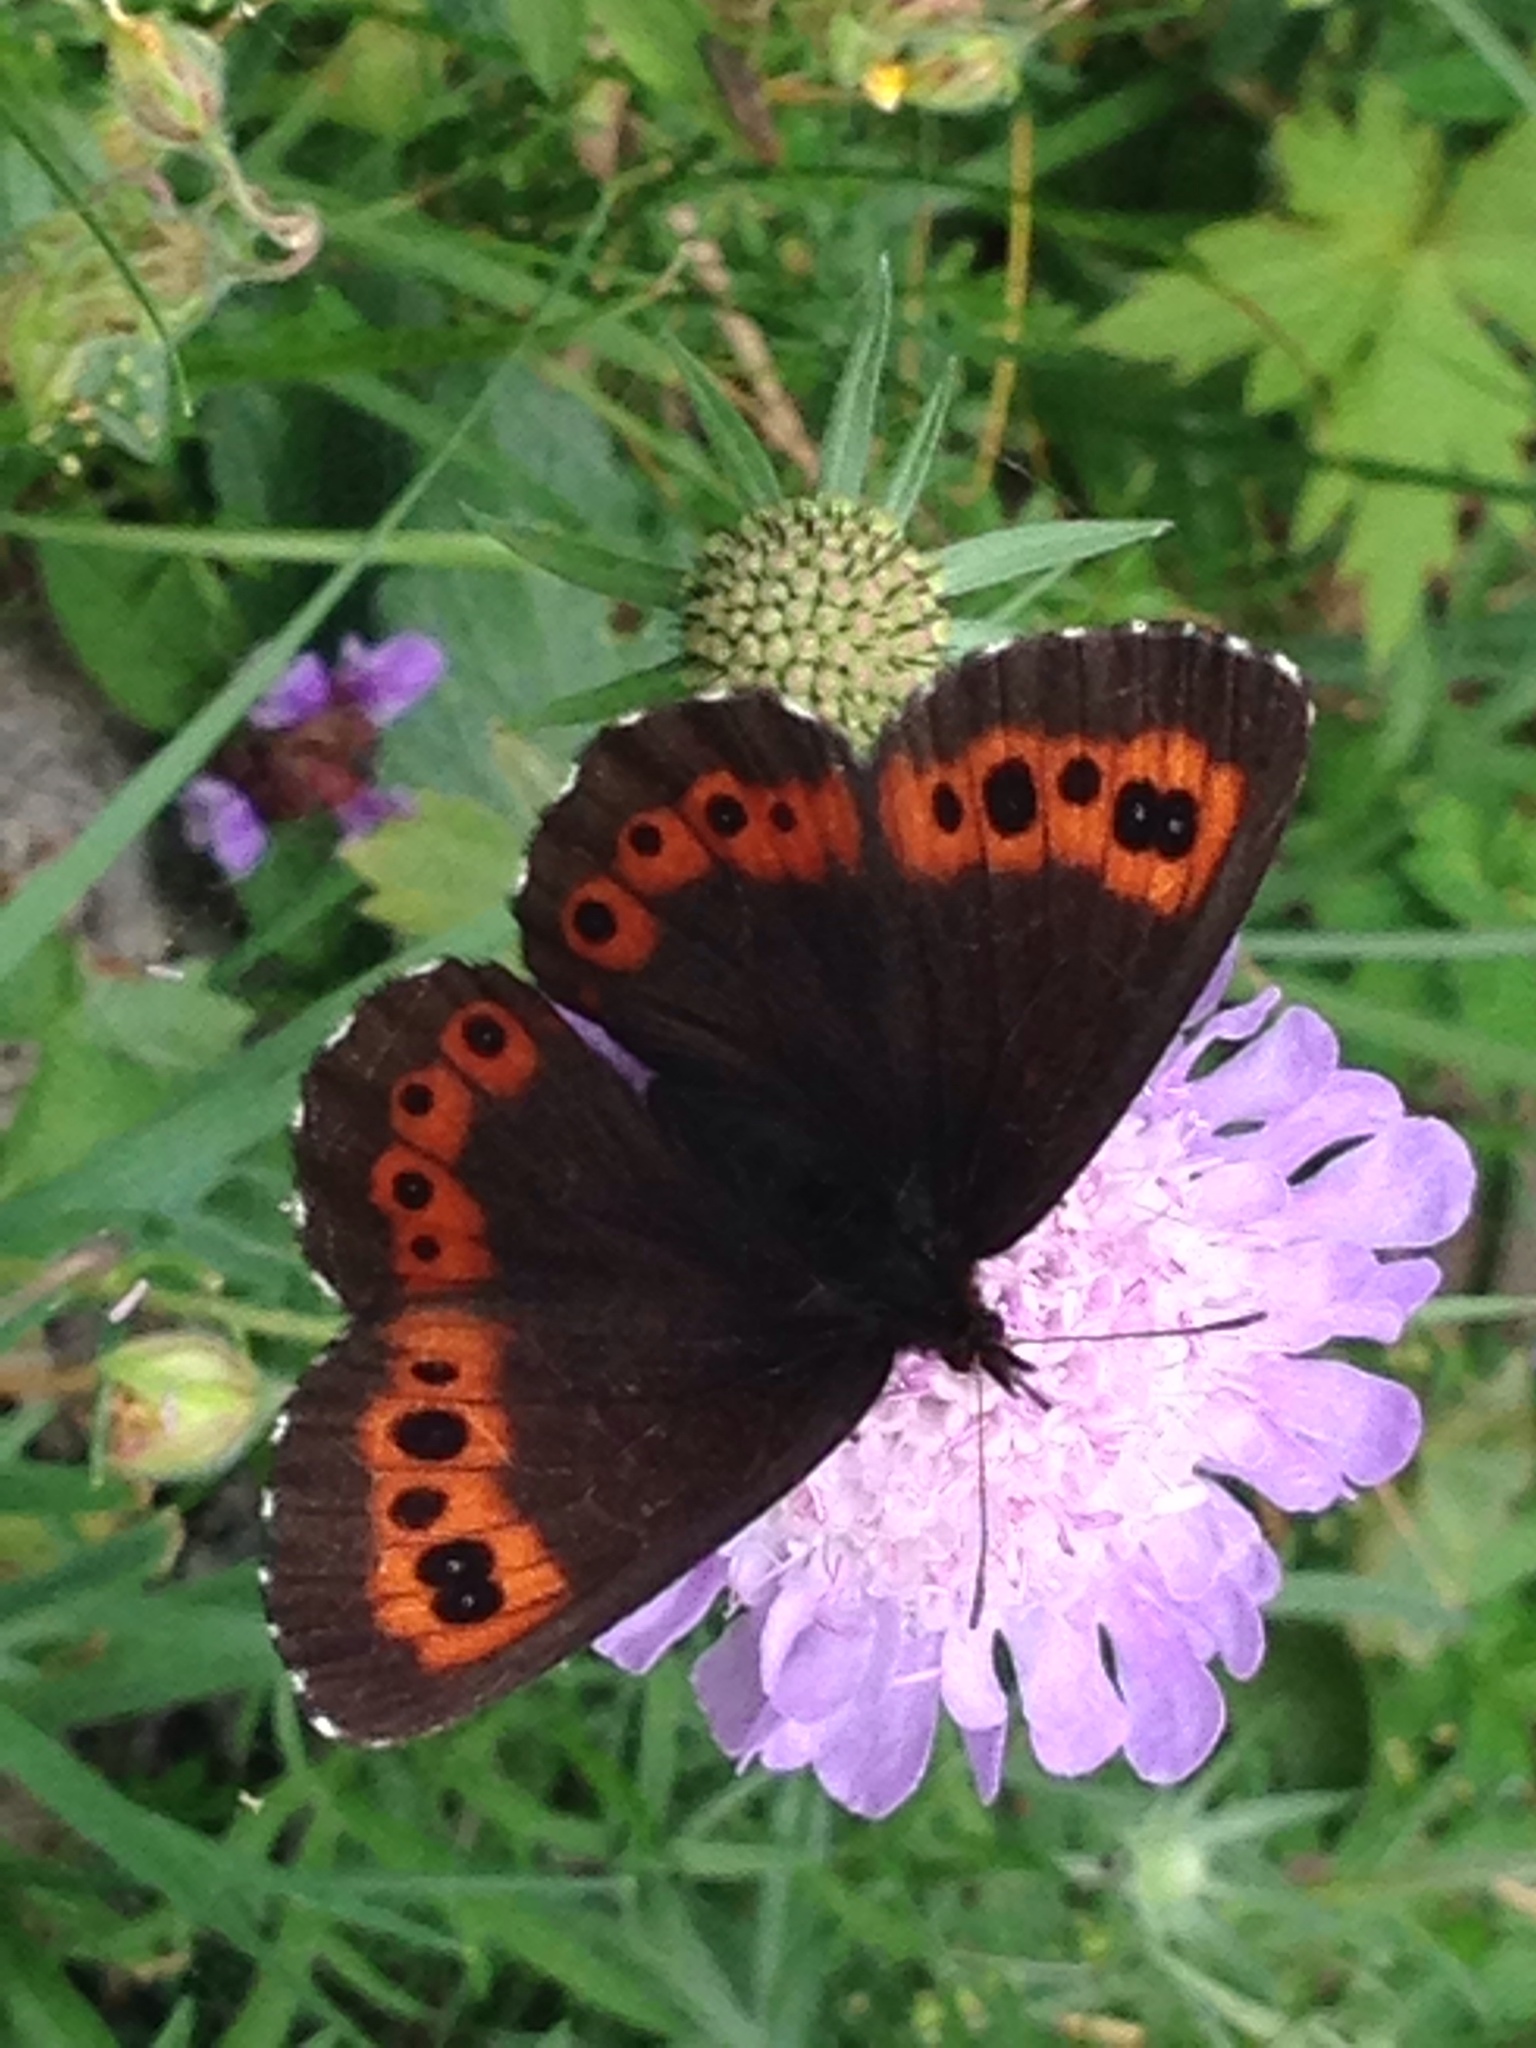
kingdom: Animalia
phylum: Arthropoda
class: Insecta
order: Lepidoptera
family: Nymphalidae
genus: Erebia
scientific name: Erebia ligea
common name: Arran brown
